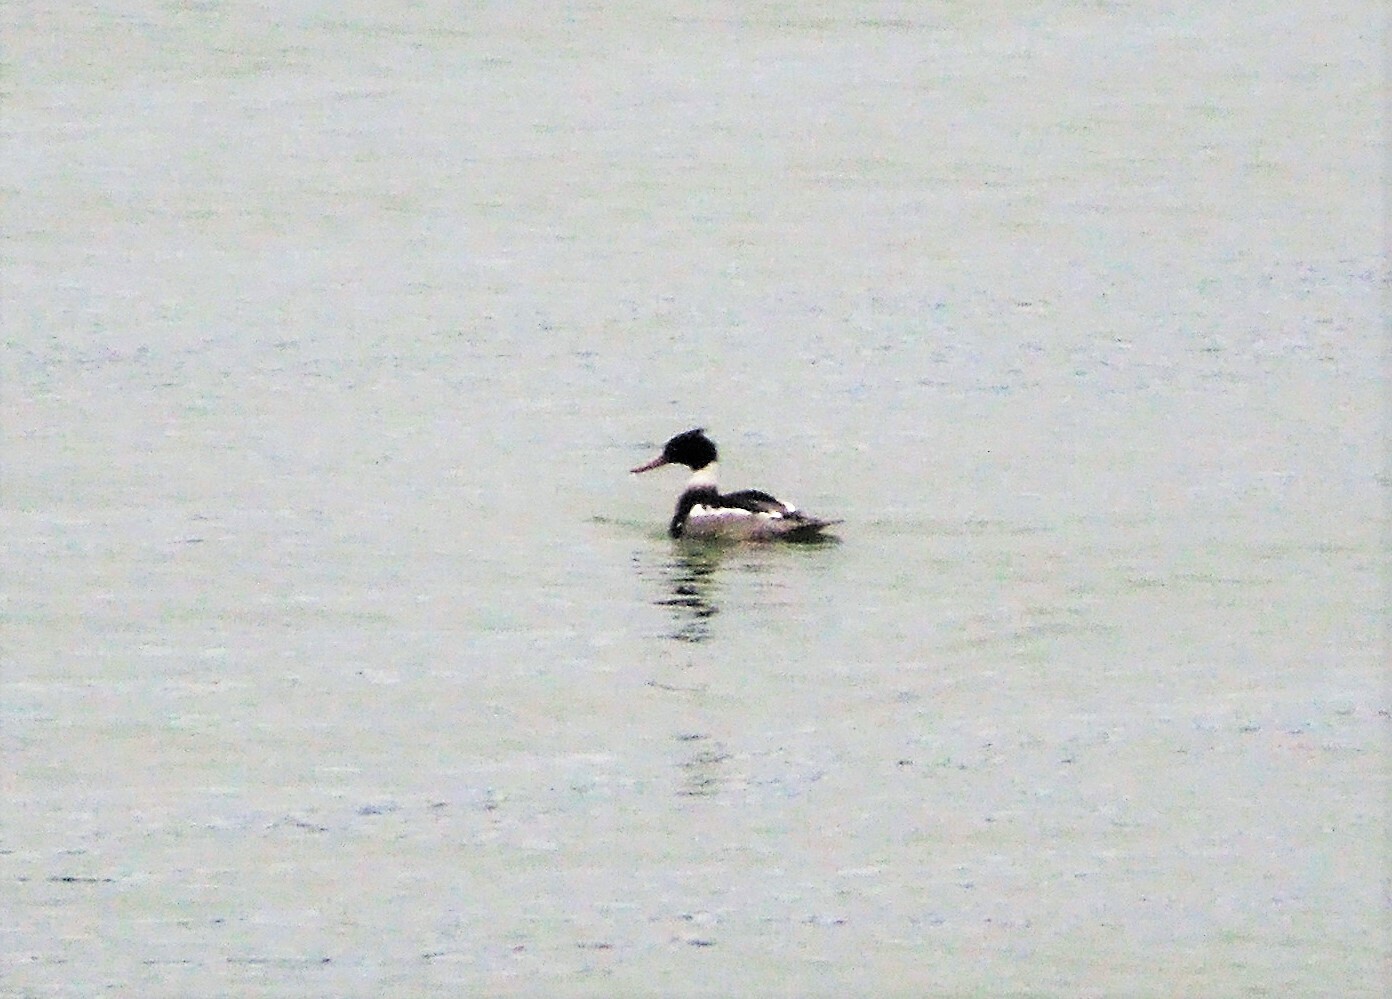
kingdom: Animalia
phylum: Chordata
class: Aves
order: Anseriformes
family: Anatidae
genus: Mergus
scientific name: Mergus serrator
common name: Red-breasted merganser
